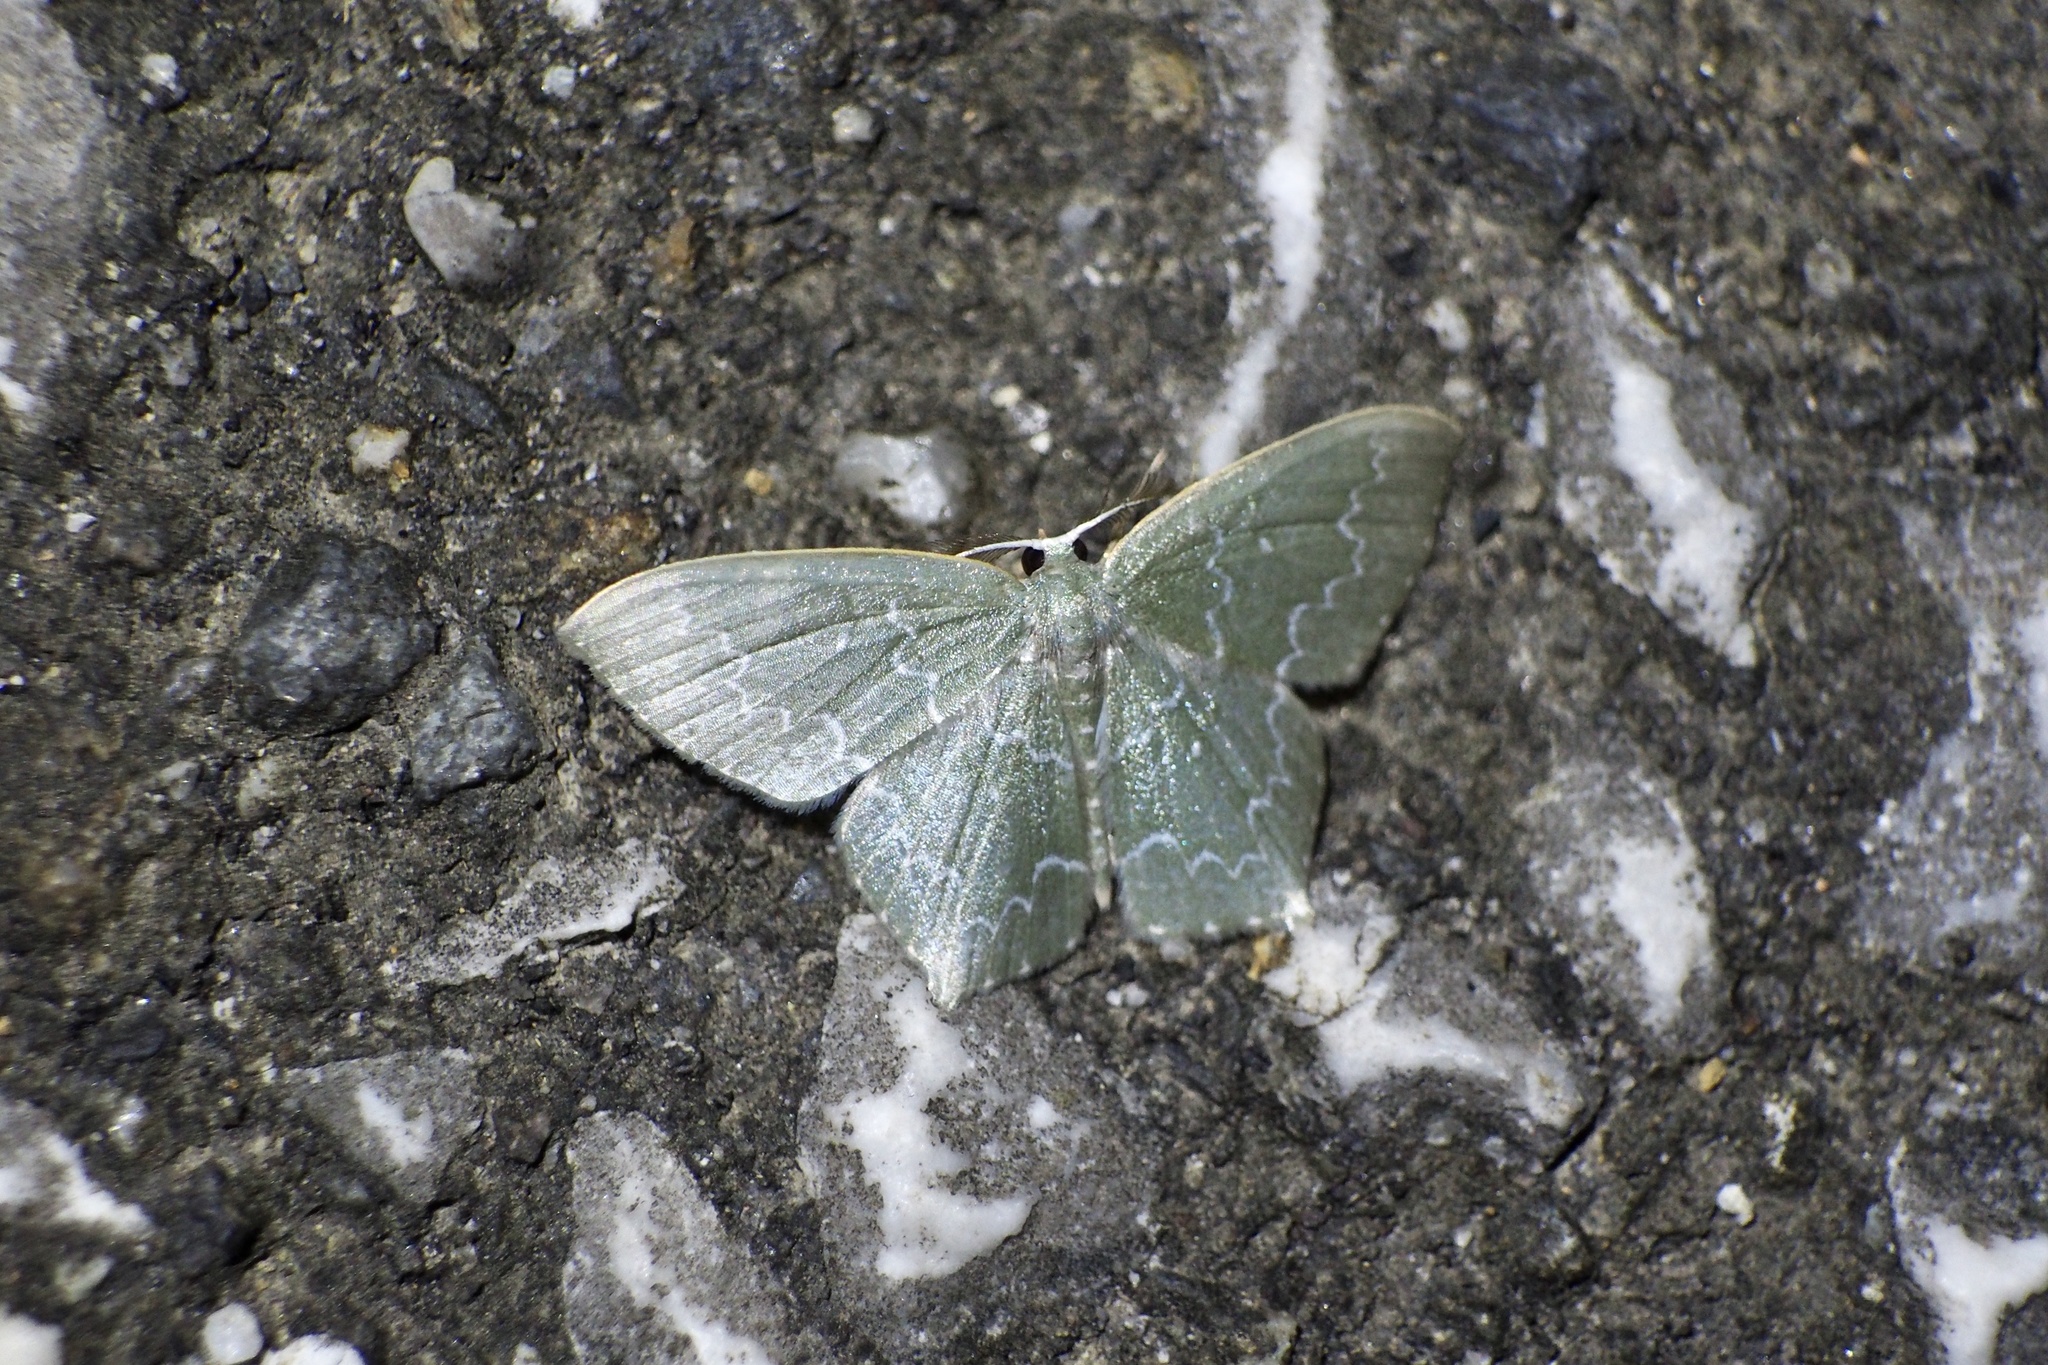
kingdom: Animalia
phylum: Arthropoda
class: Insecta
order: Lepidoptera
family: Geometridae
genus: Jodis
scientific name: Jodis urosticta
